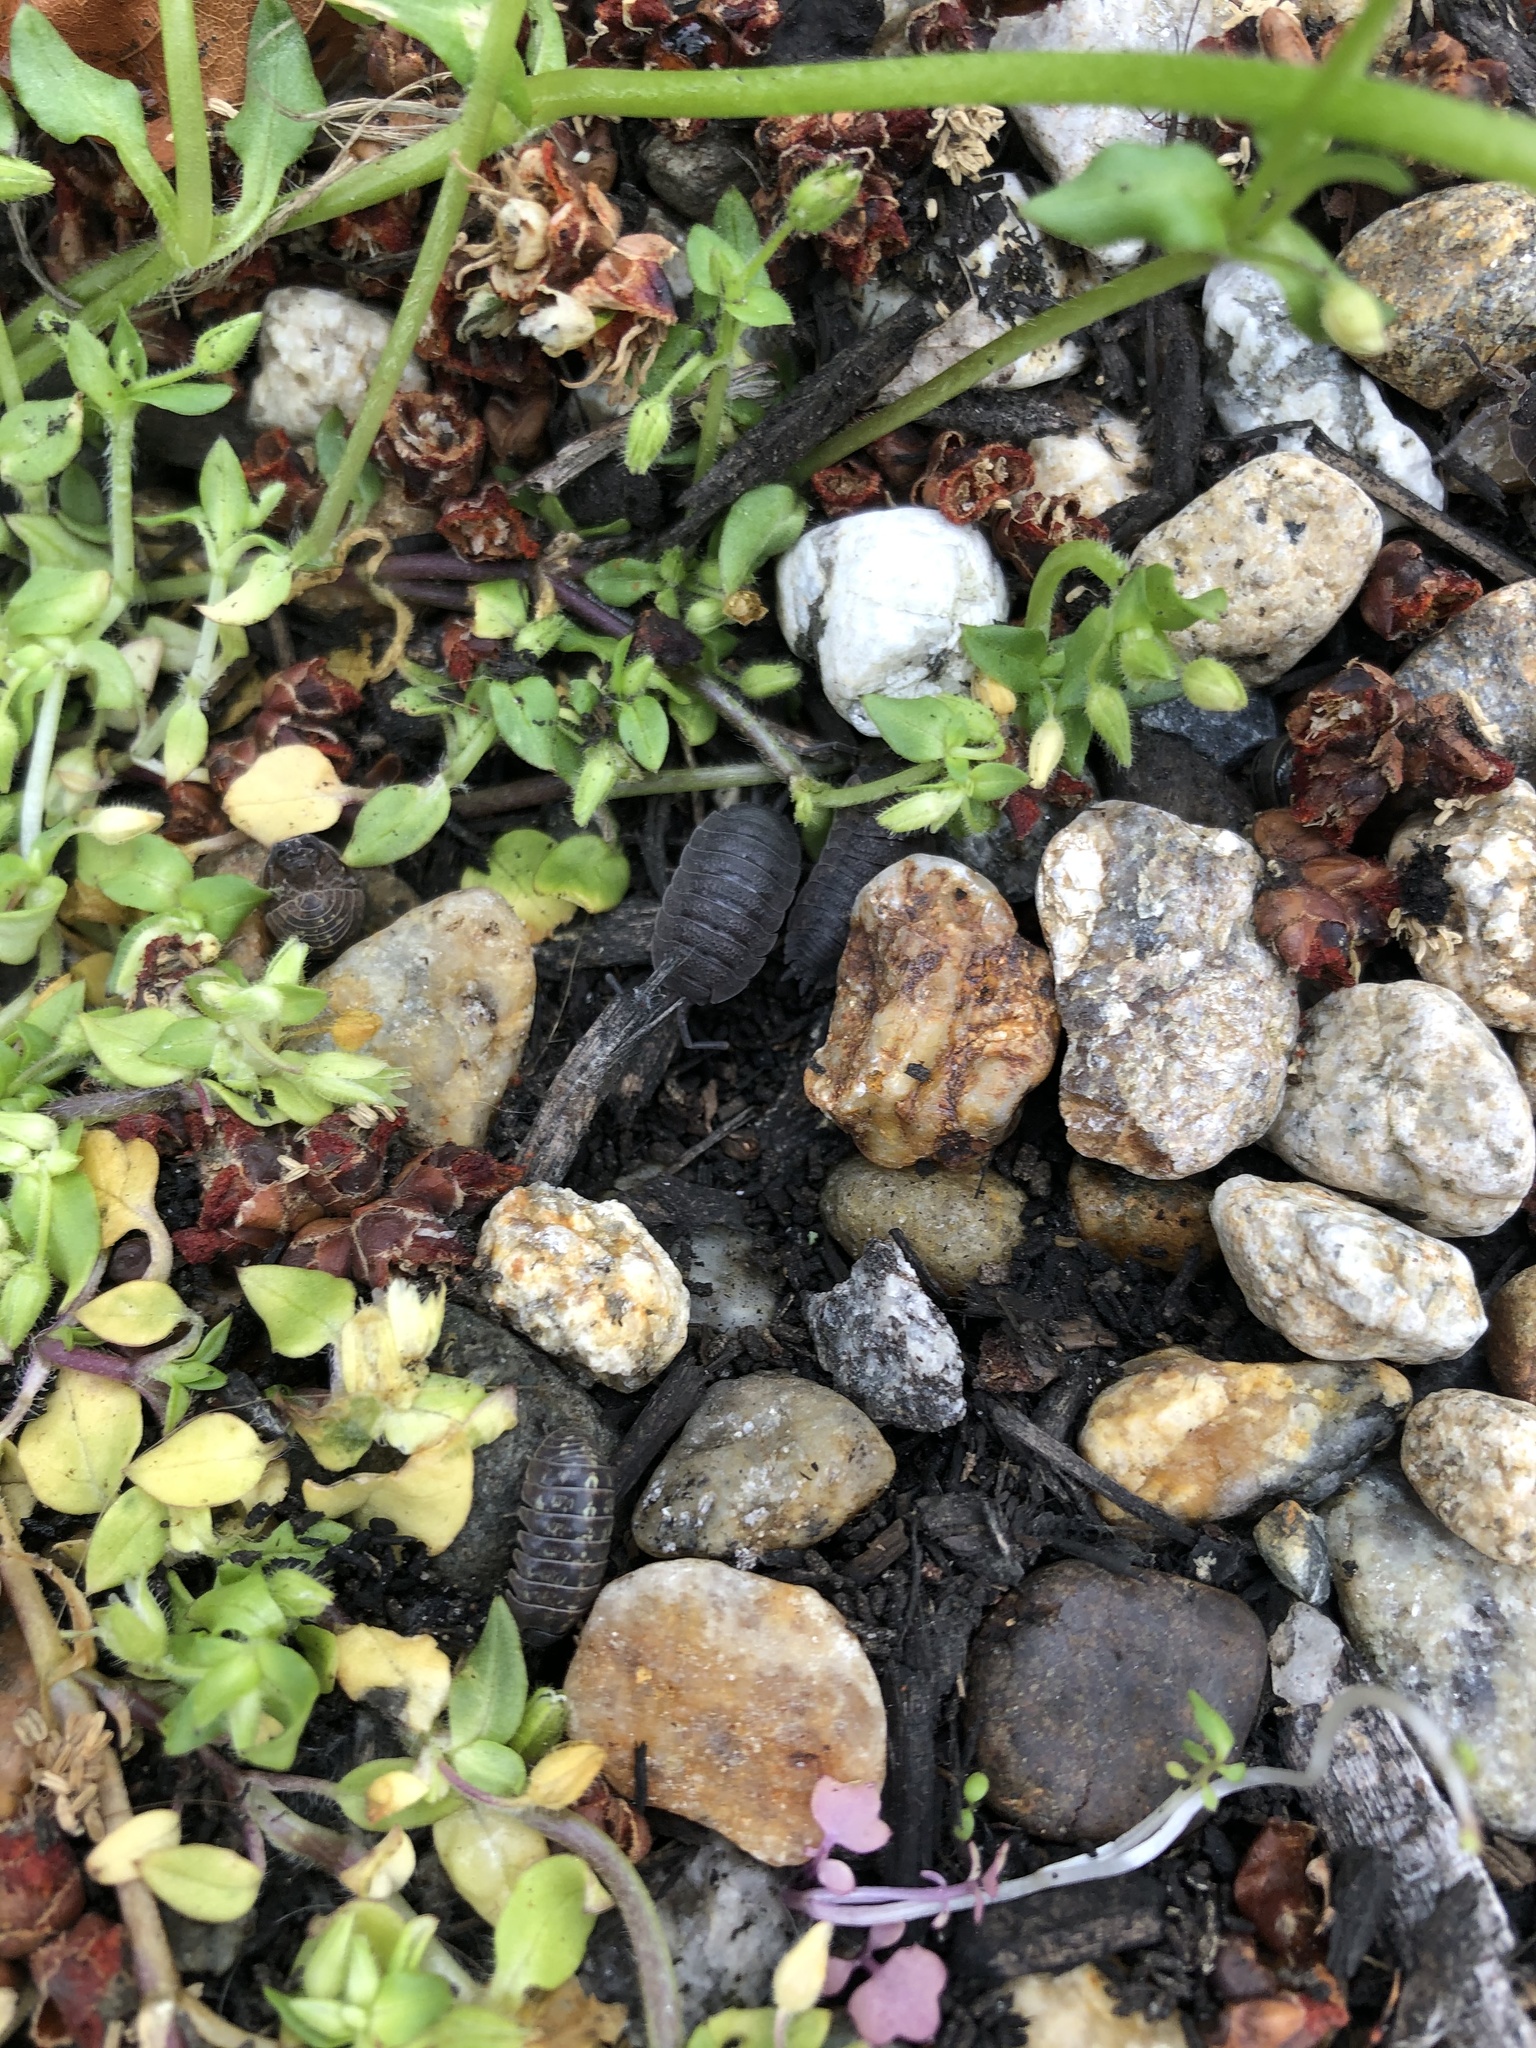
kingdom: Animalia
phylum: Arthropoda
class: Malacostraca
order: Isopoda
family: Porcellionidae
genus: Porcellio
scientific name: Porcellio scaber
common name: Common rough woodlouse
